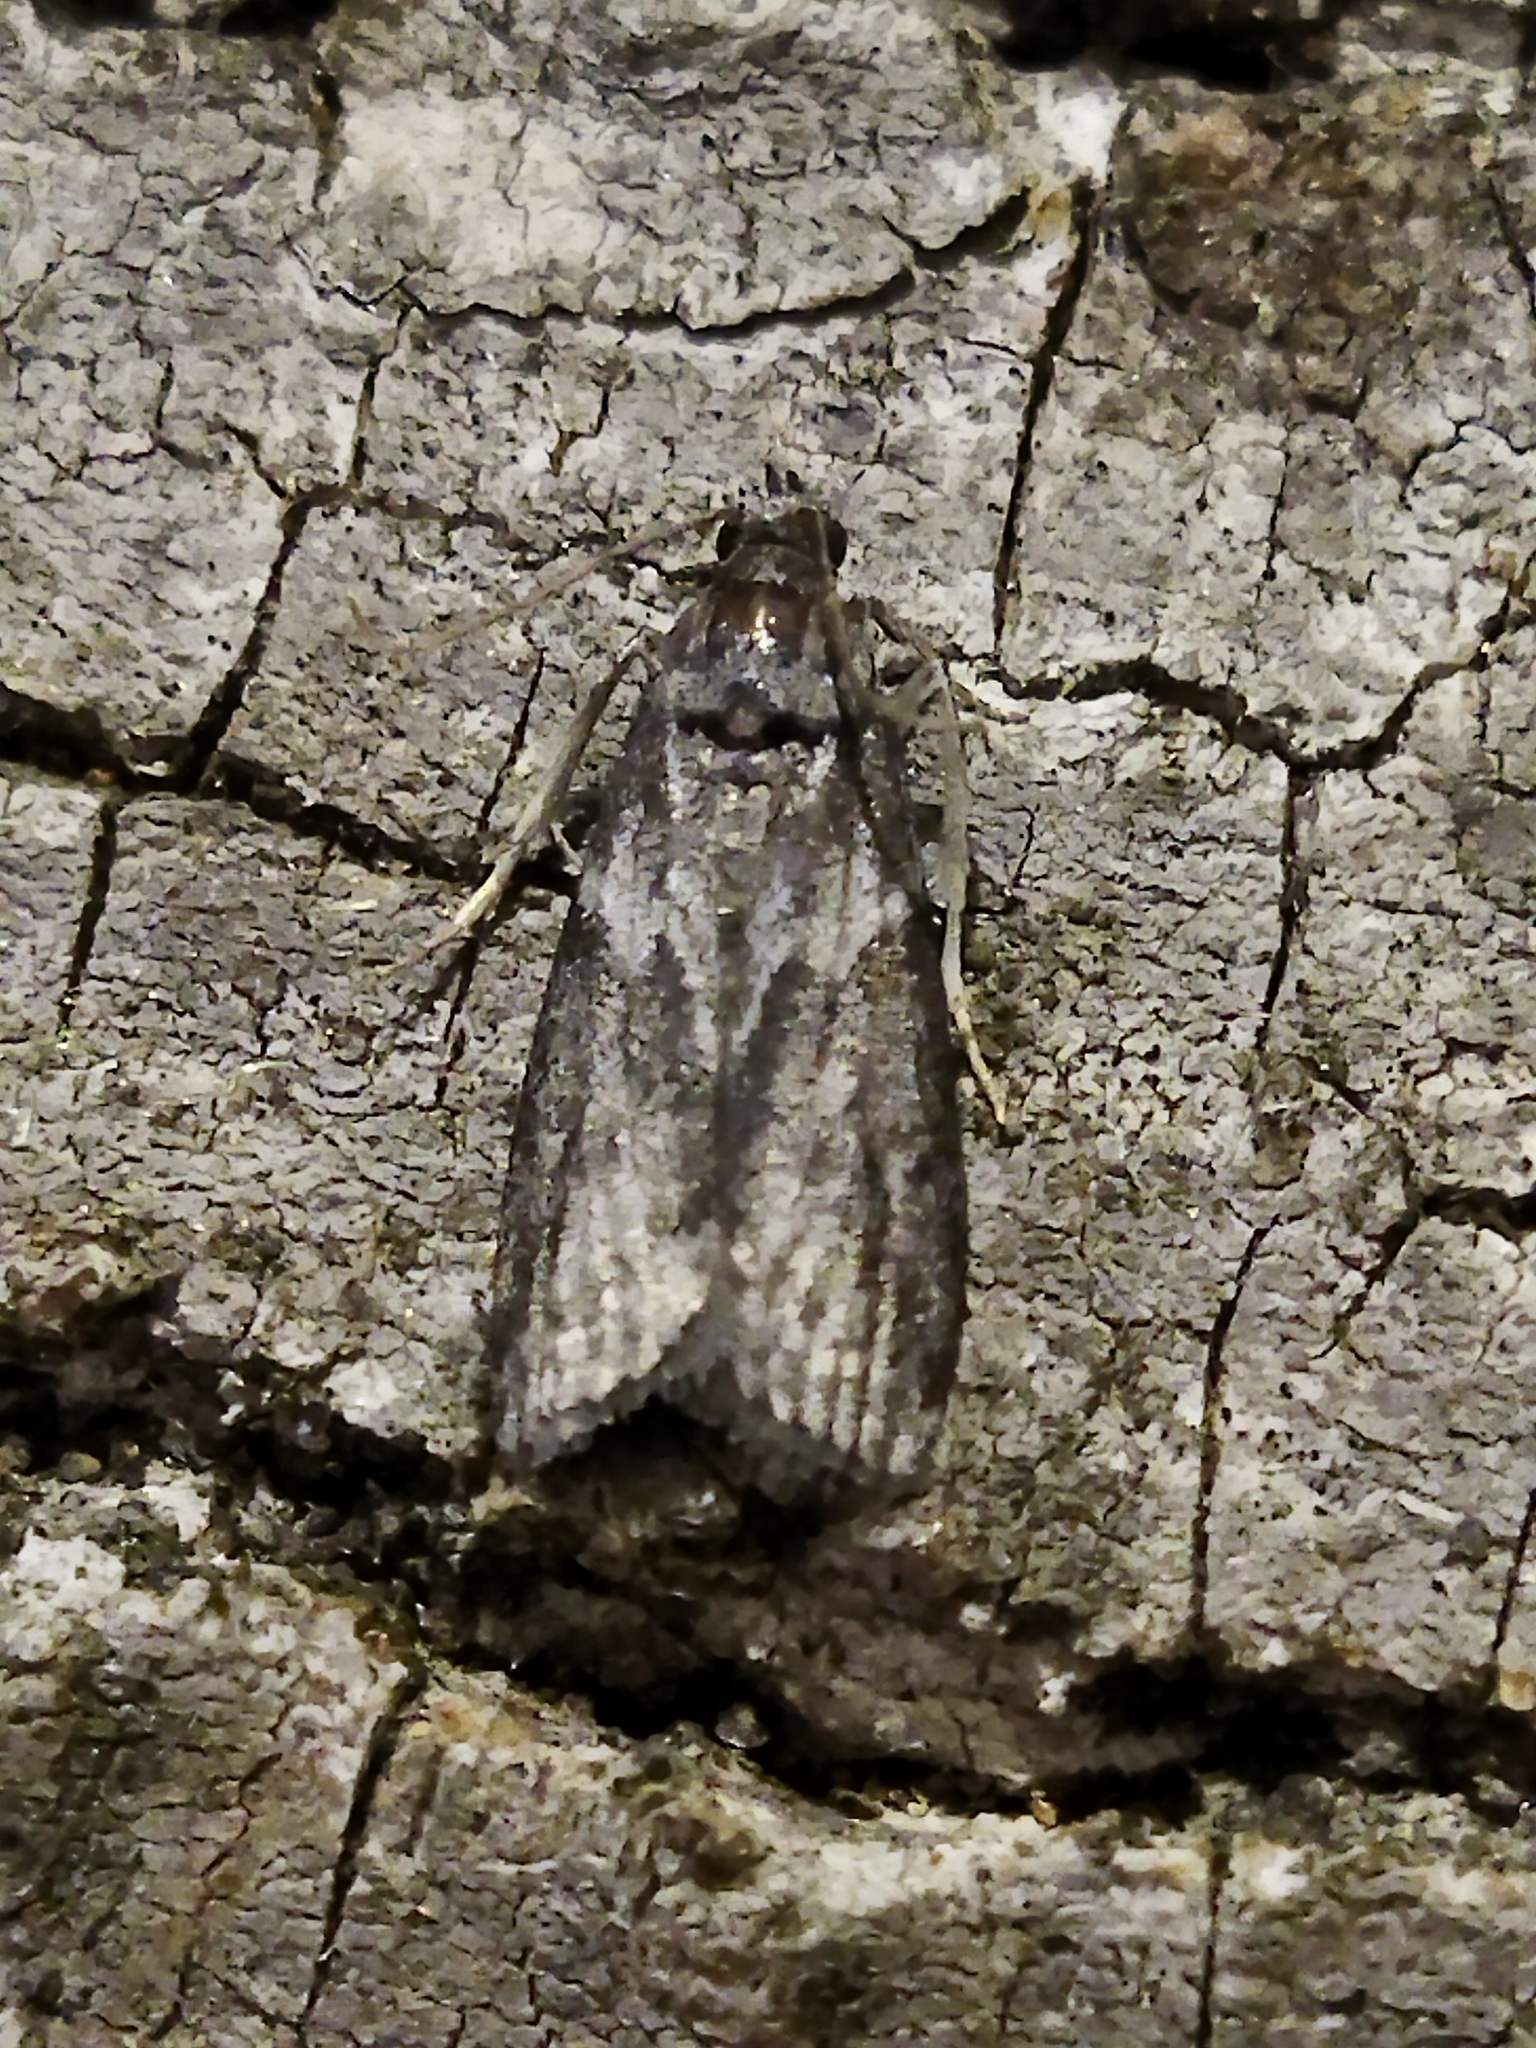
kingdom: Animalia
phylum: Arthropoda
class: Insecta
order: Lepidoptera
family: Pyralidae
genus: Ectomyelois
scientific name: Ectomyelois ceratoniae
